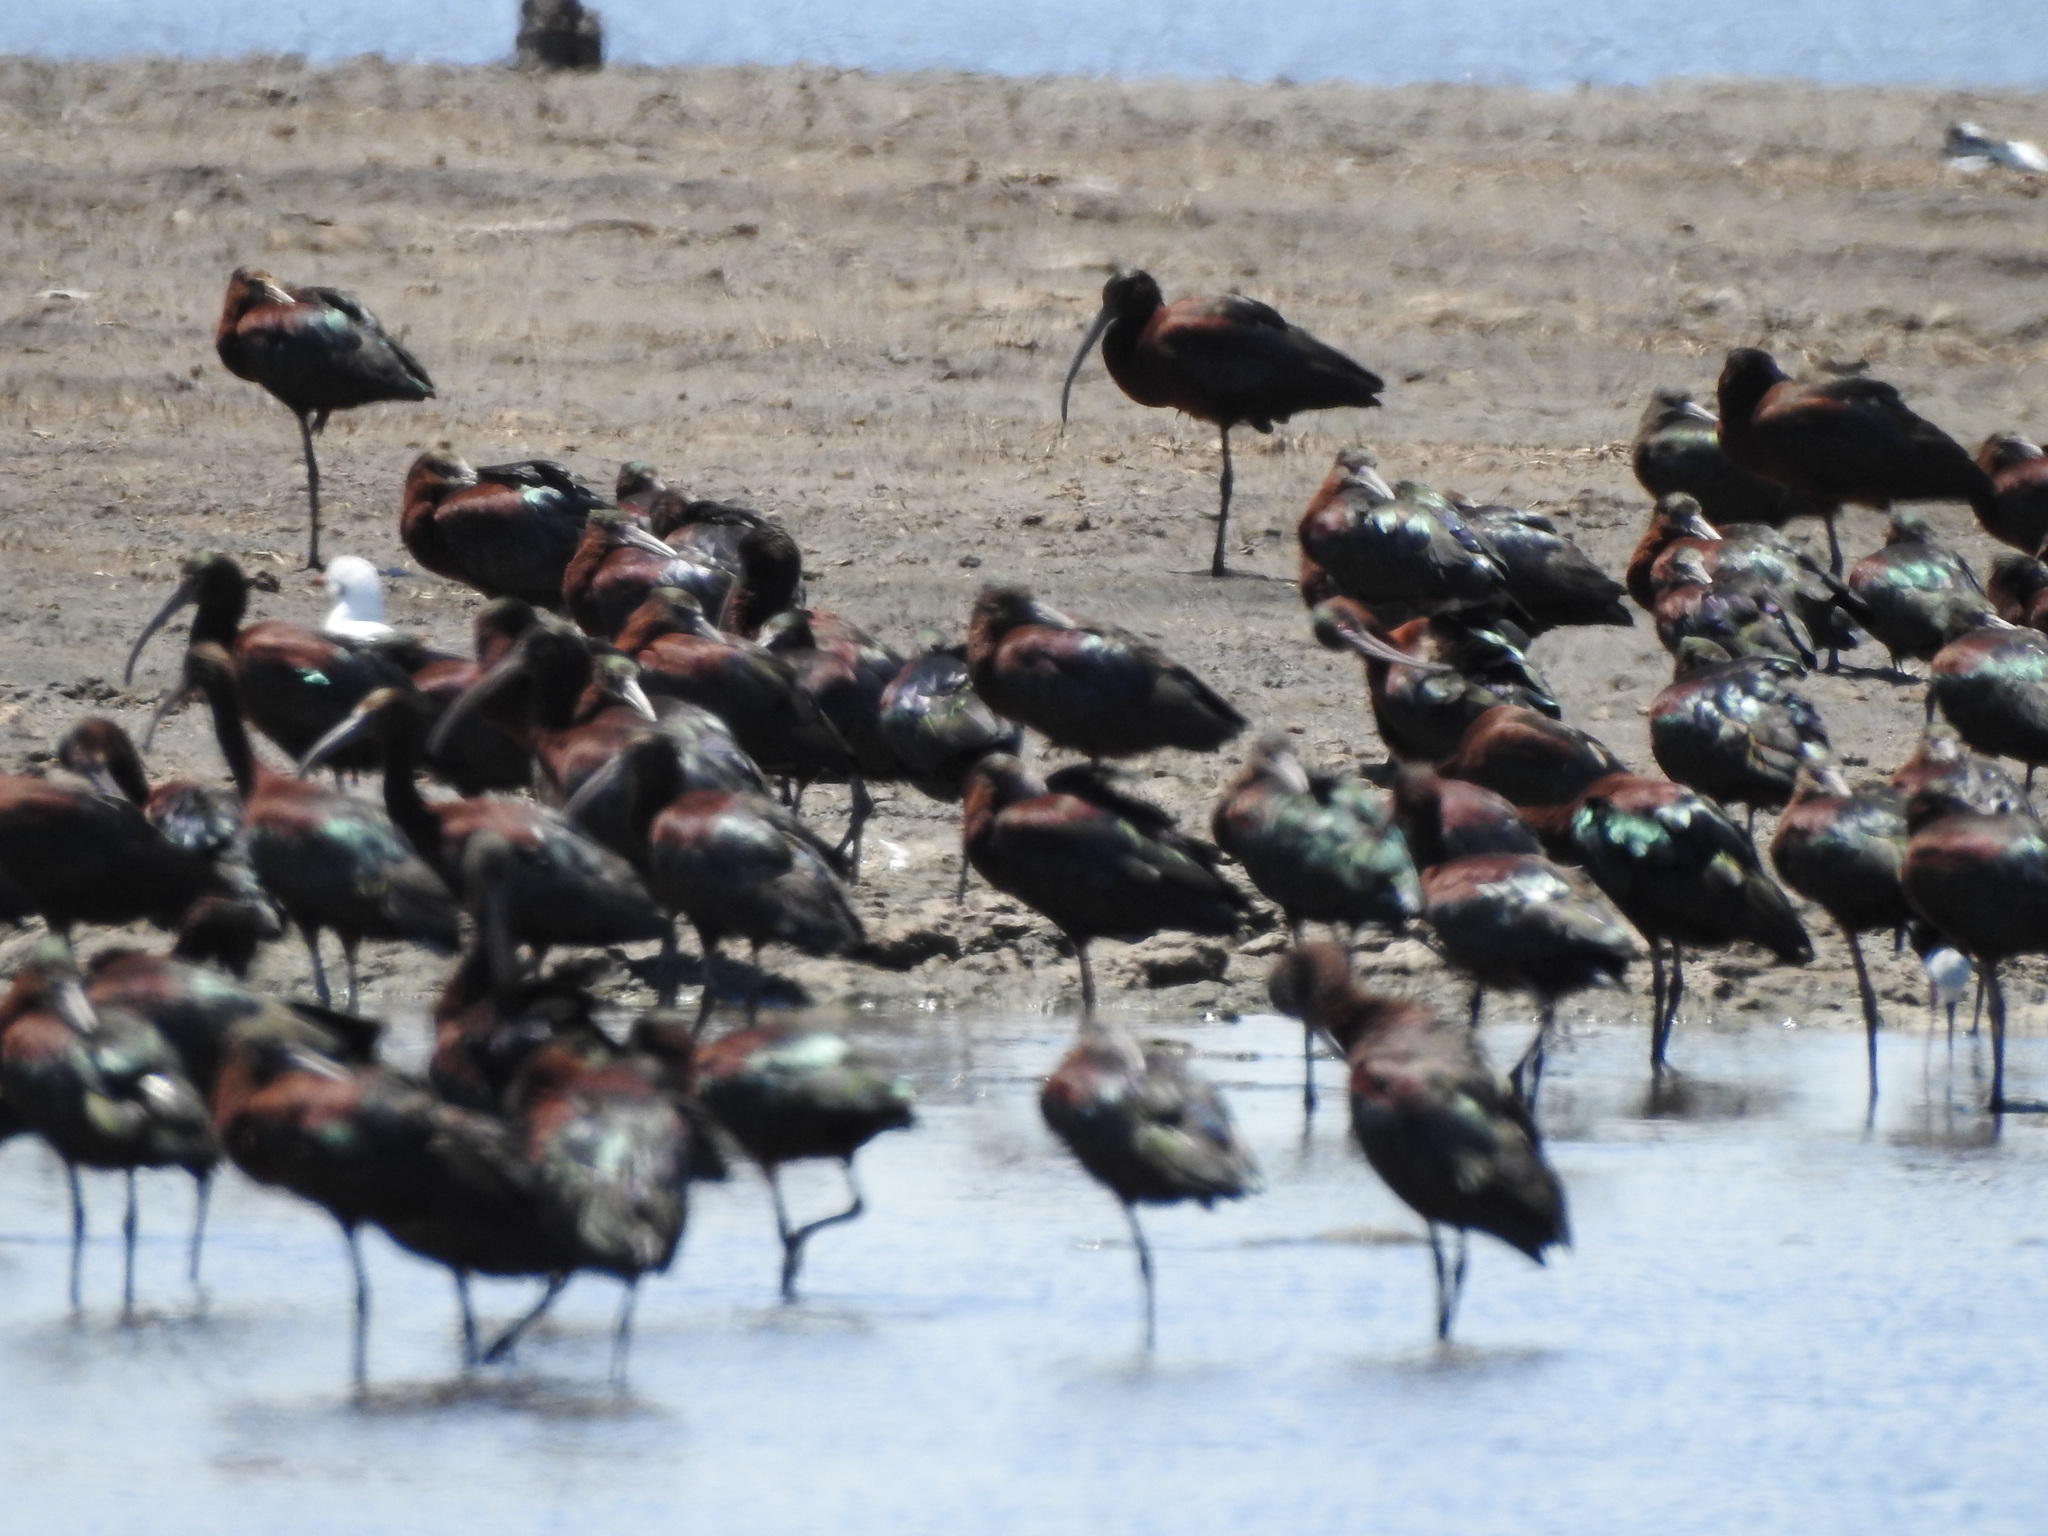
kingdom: Animalia
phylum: Chordata
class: Aves
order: Pelecaniformes
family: Threskiornithidae
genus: Plegadis
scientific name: Plegadis chihi
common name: White-faced ibis
